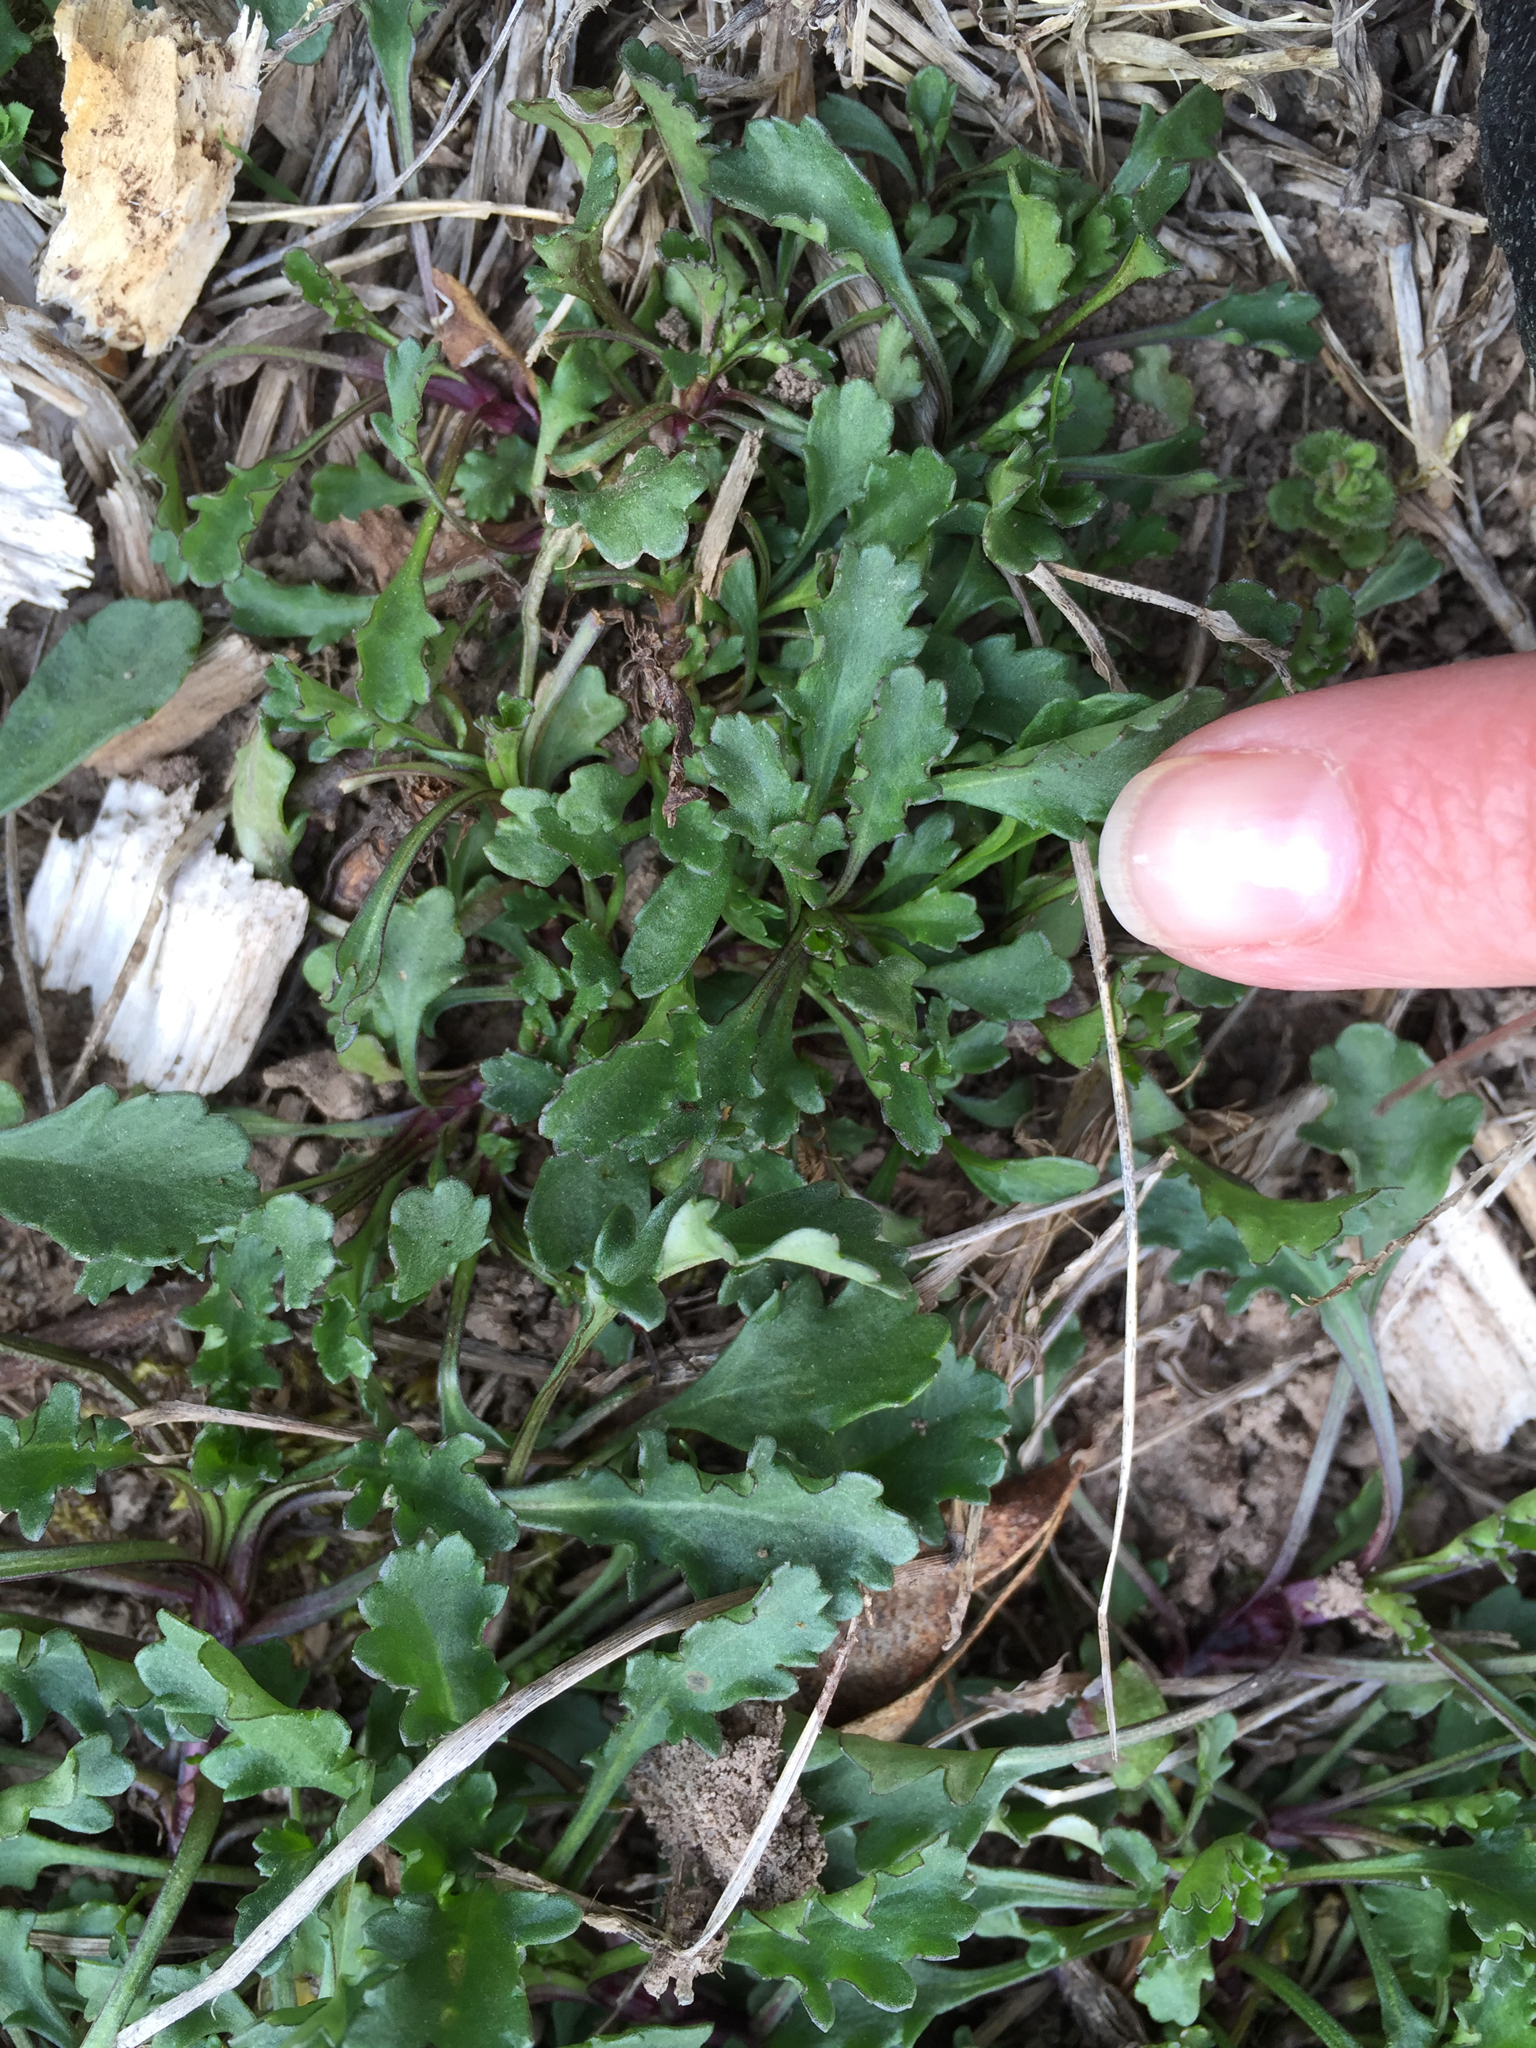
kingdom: Plantae
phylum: Tracheophyta
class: Magnoliopsida
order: Asterales
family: Asteraceae
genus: Leucanthemum
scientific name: Leucanthemum vulgare
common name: Oxeye daisy
